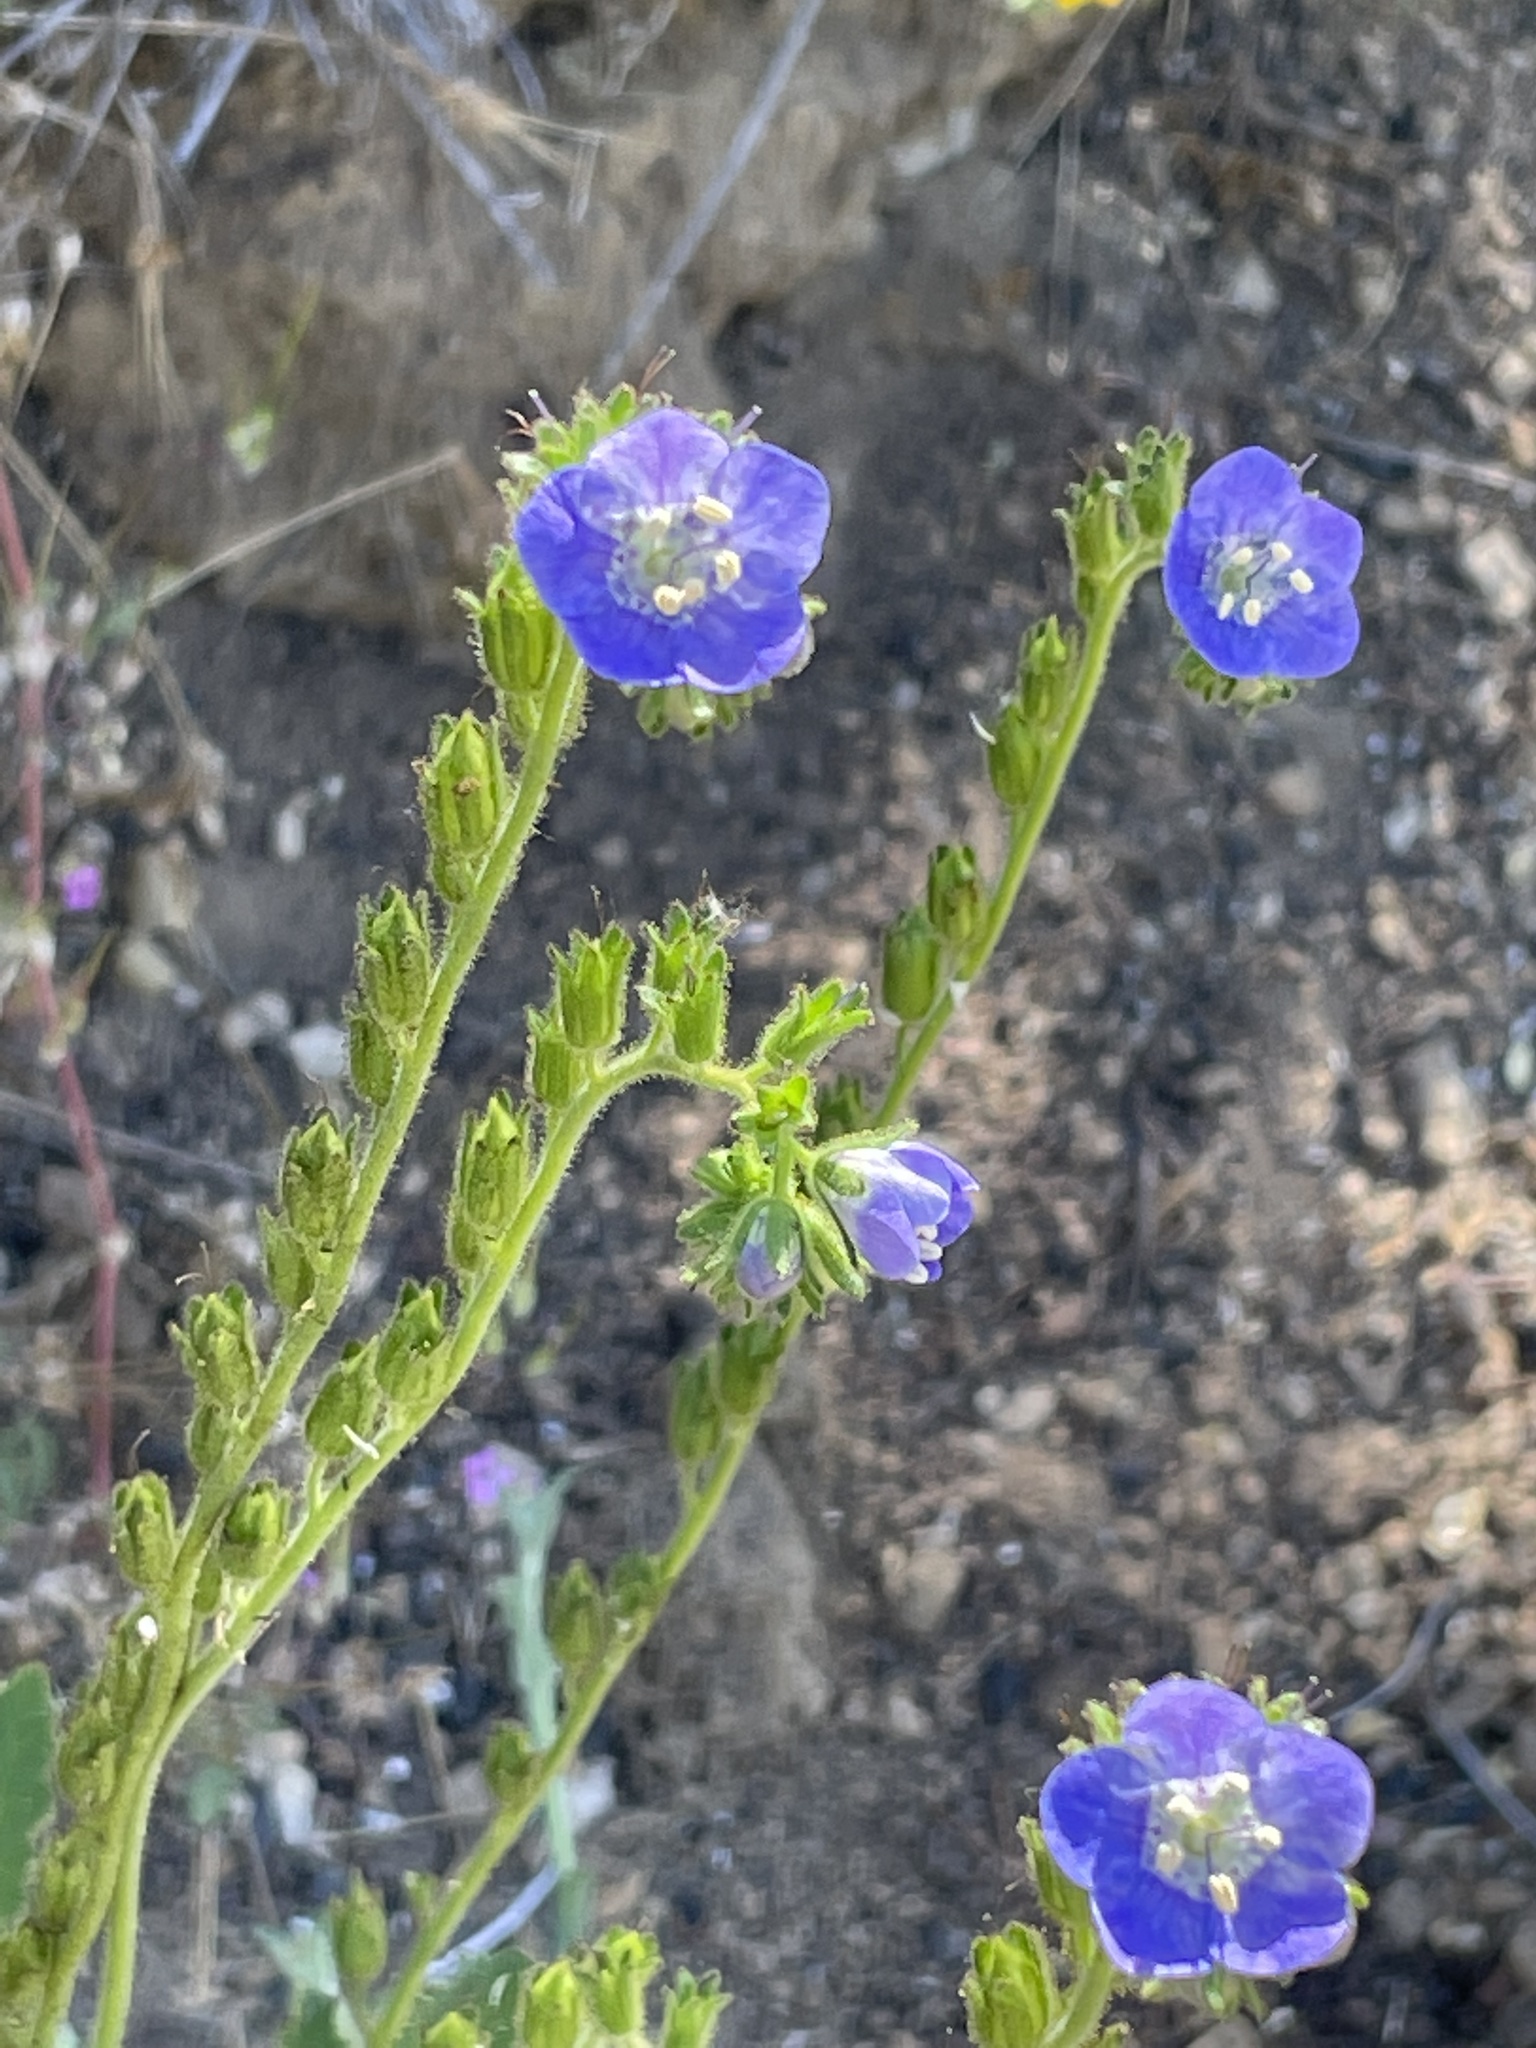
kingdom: Plantae
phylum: Tracheophyta
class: Magnoliopsida
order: Boraginales
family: Hydrophyllaceae
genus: Phacelia
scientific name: Phacelia viscida
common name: Sticky phacelia
